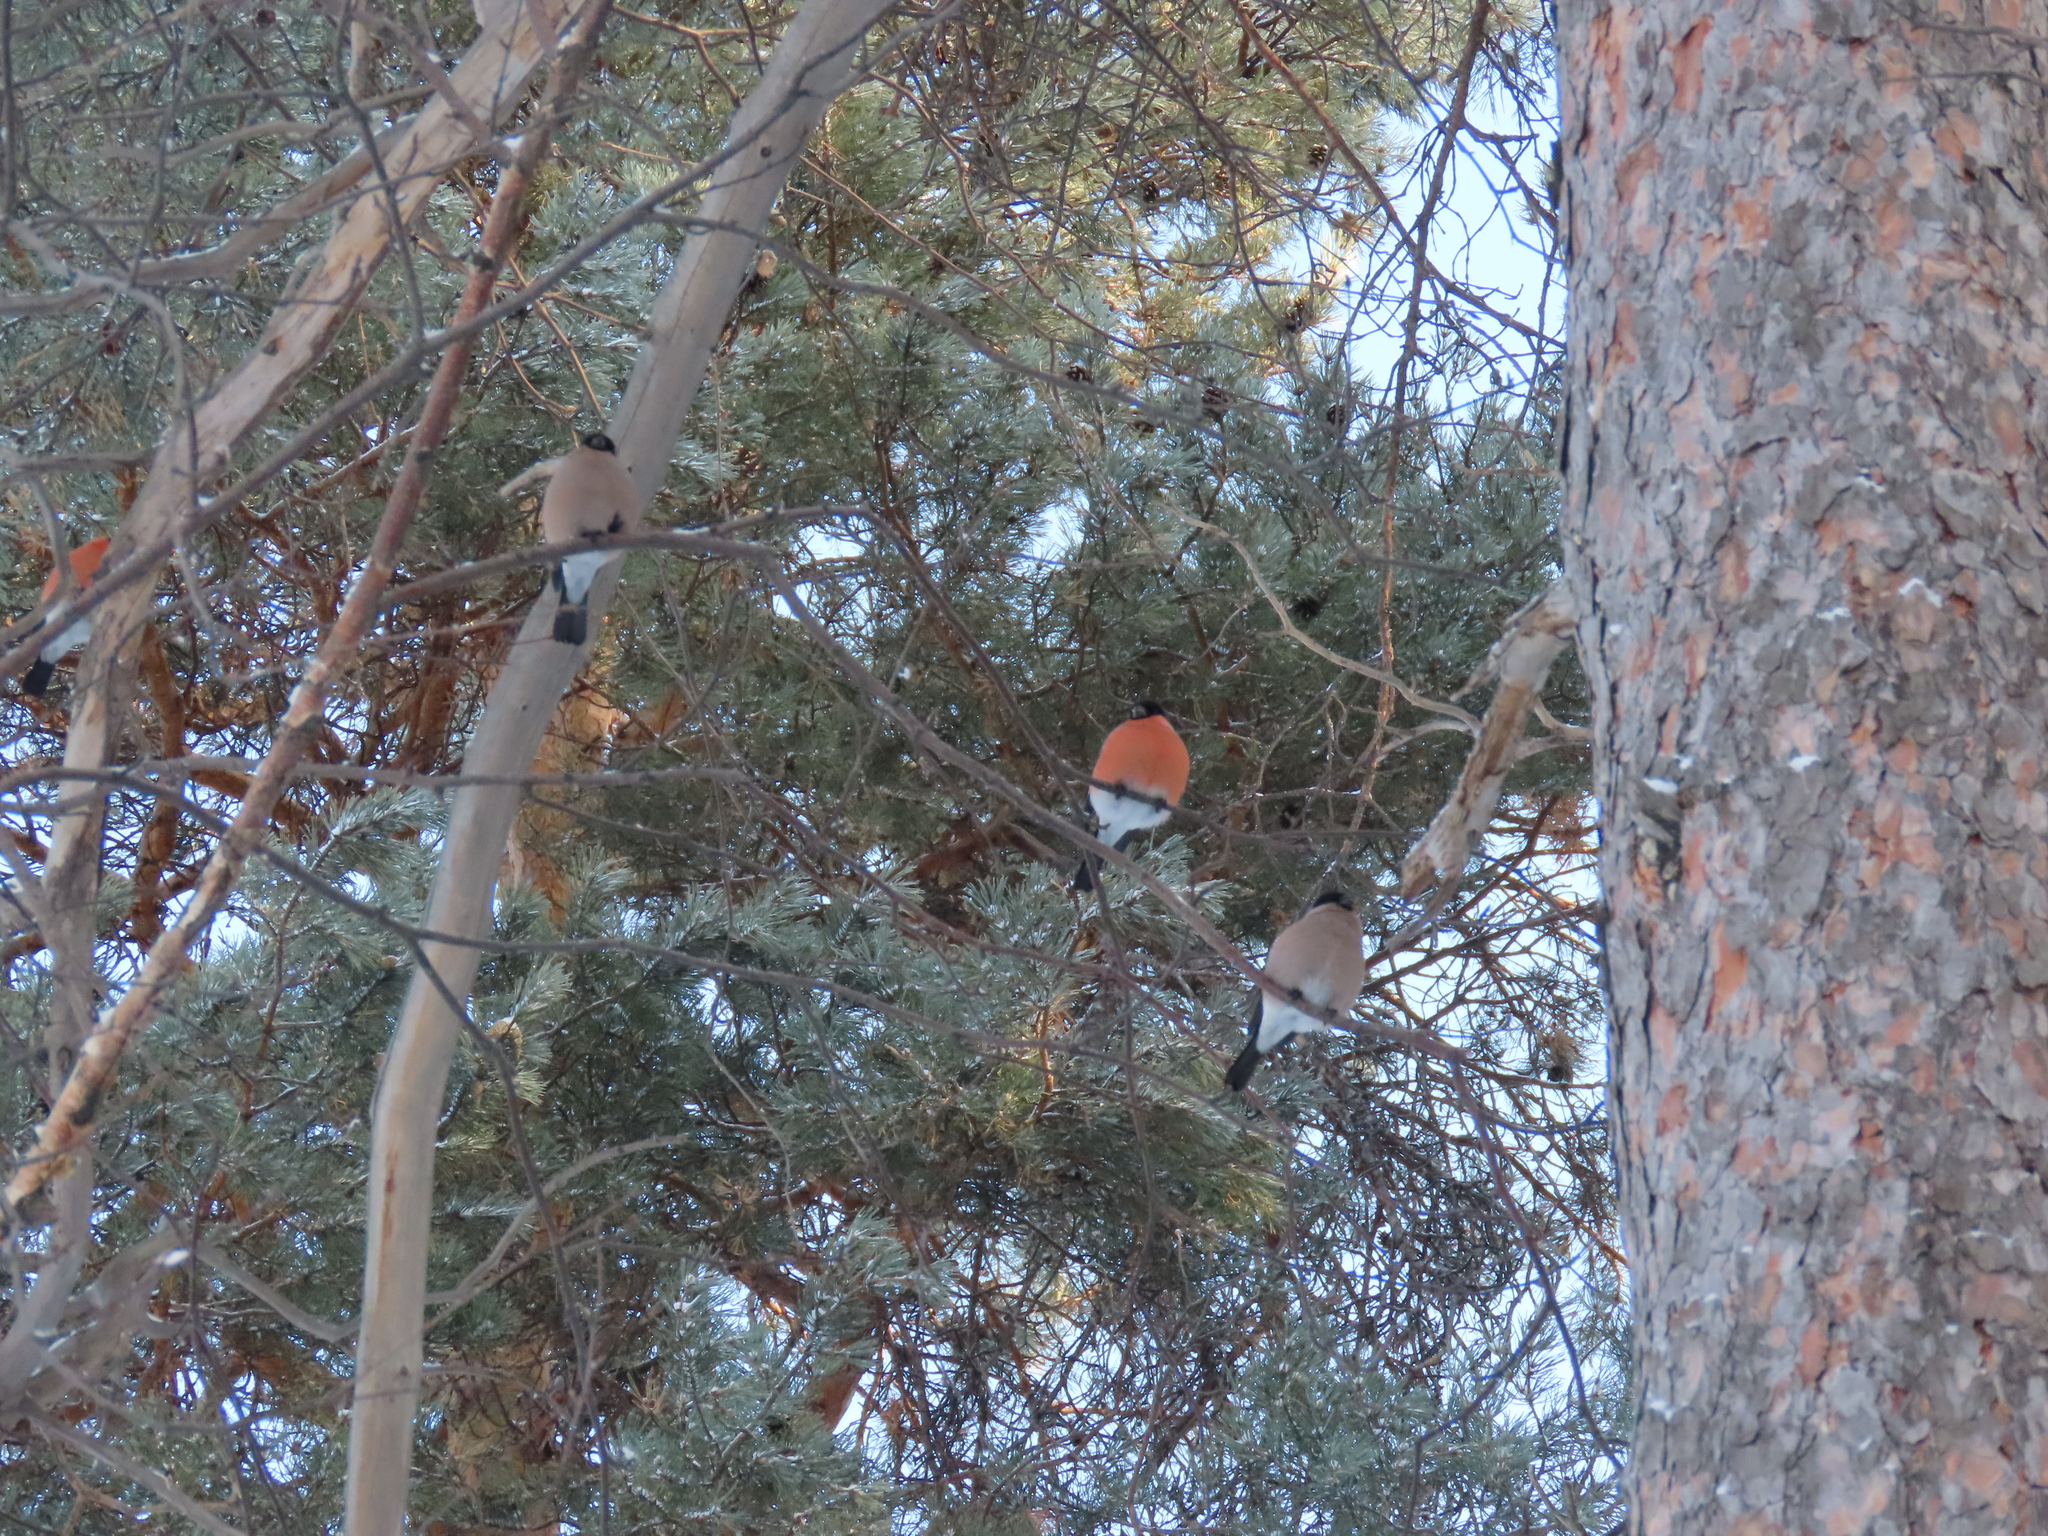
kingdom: Animalia
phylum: Chordata
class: Aves
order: Passeriformes
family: Fringillidae
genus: Pyrrhula
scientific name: Pyrrhula pyrrhula
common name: Eurasian bullfinch
